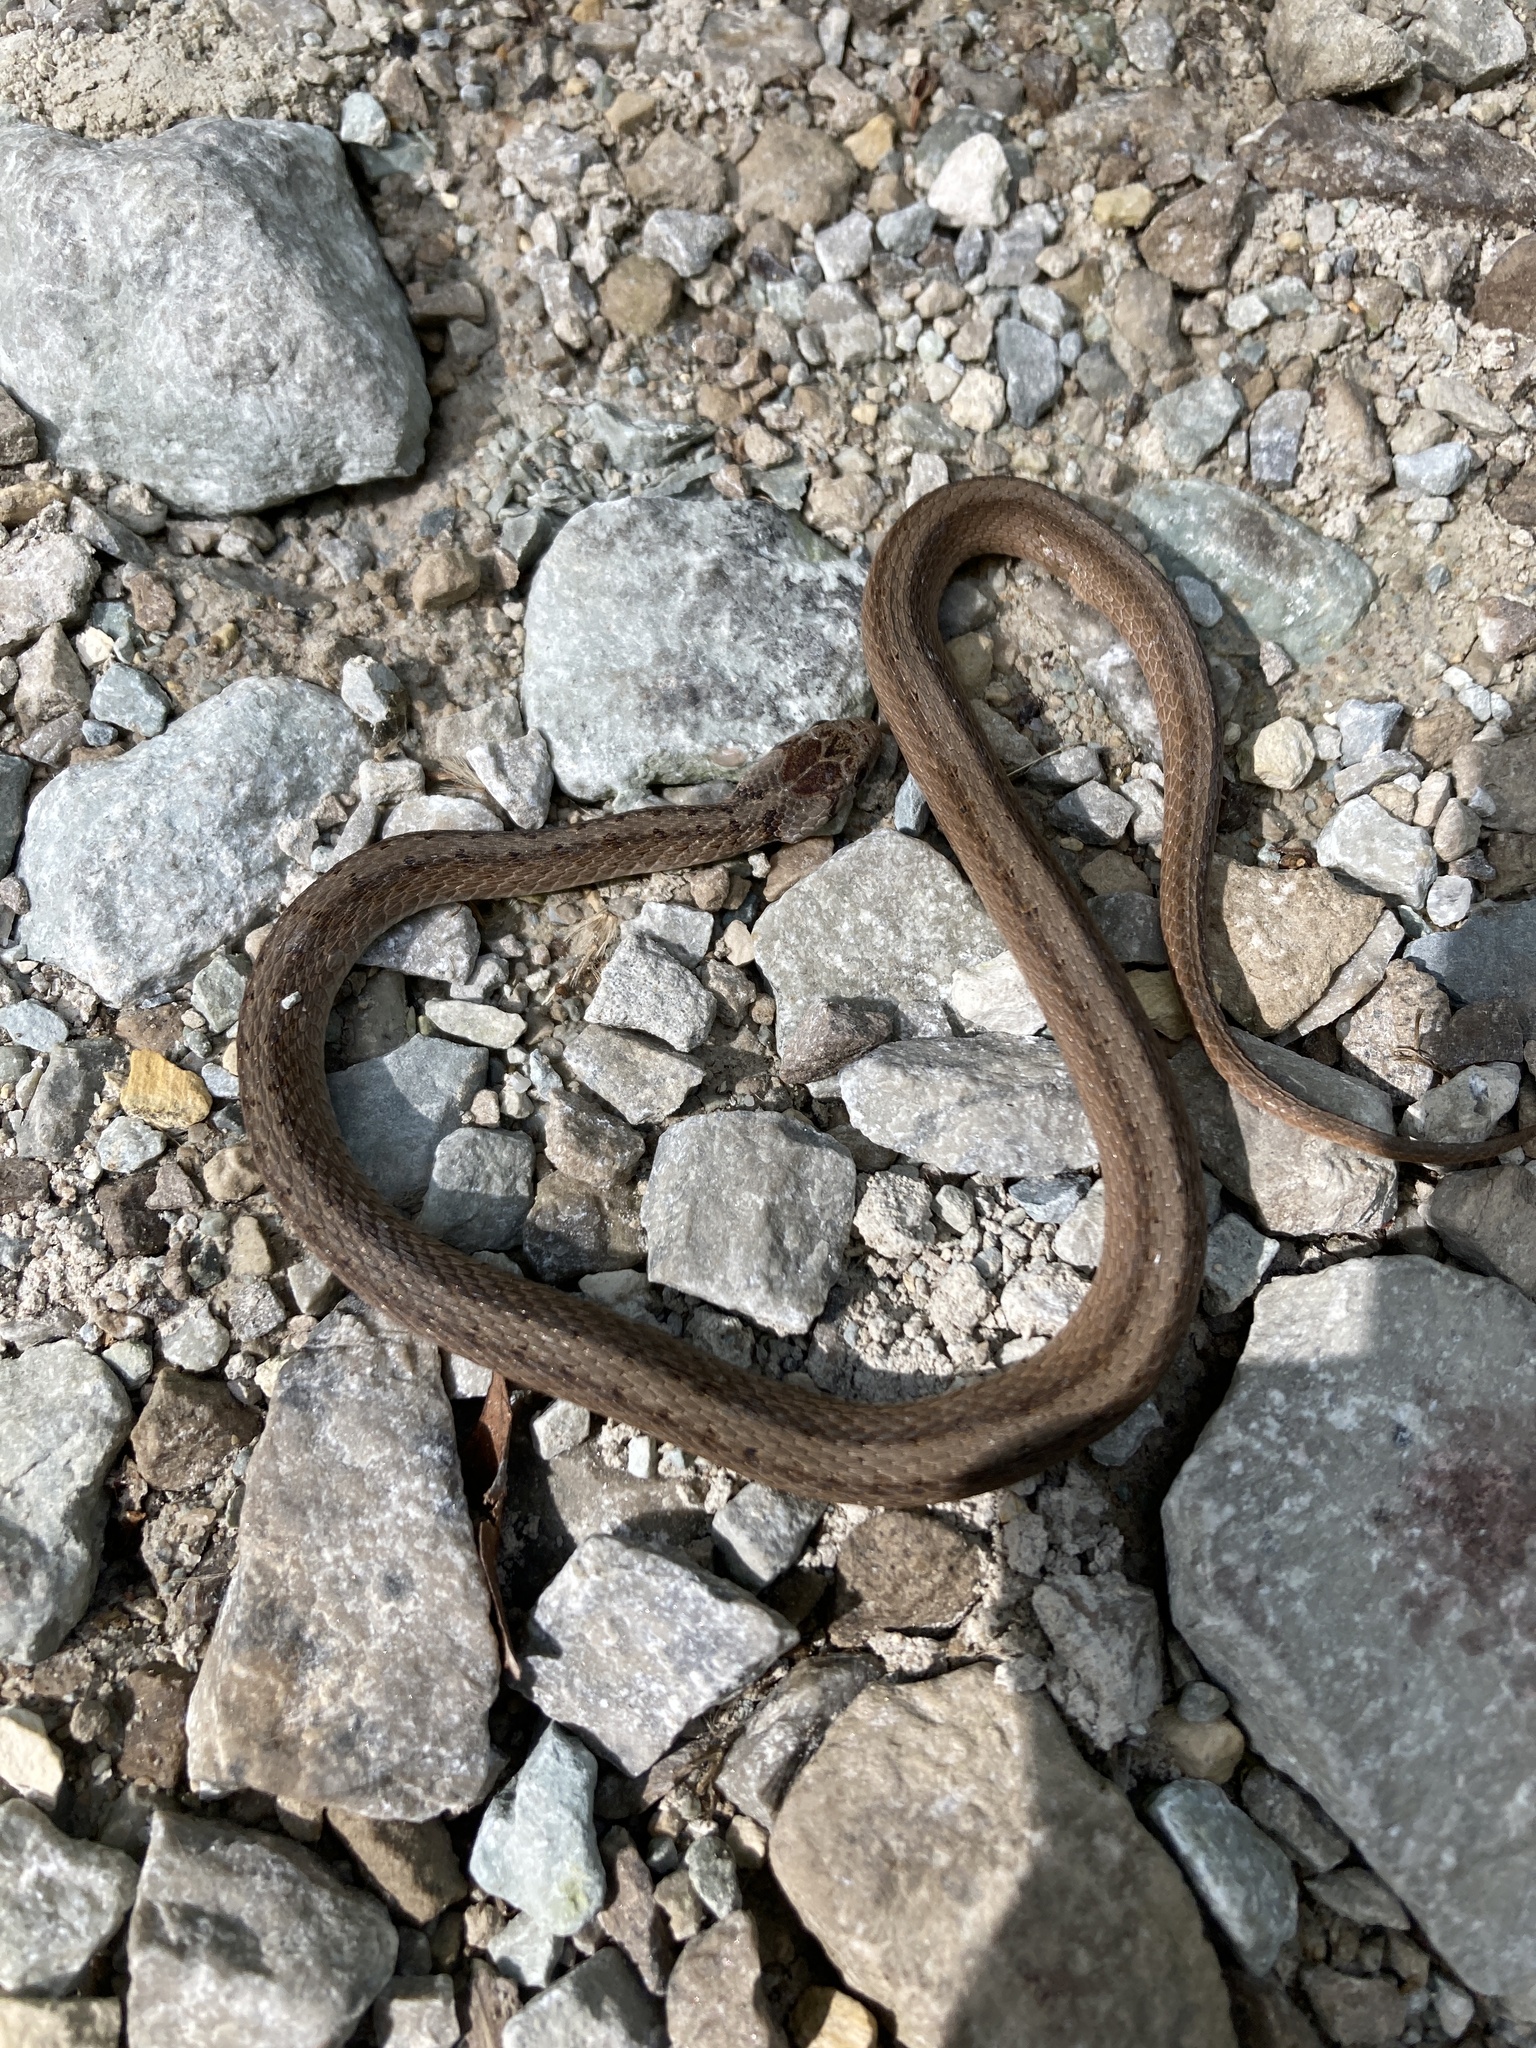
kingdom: Animalia
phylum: Chordata
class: Squamata
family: Colubridae
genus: Storeria
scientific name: Storeria dekayi
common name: (dekay’s) brown snake
